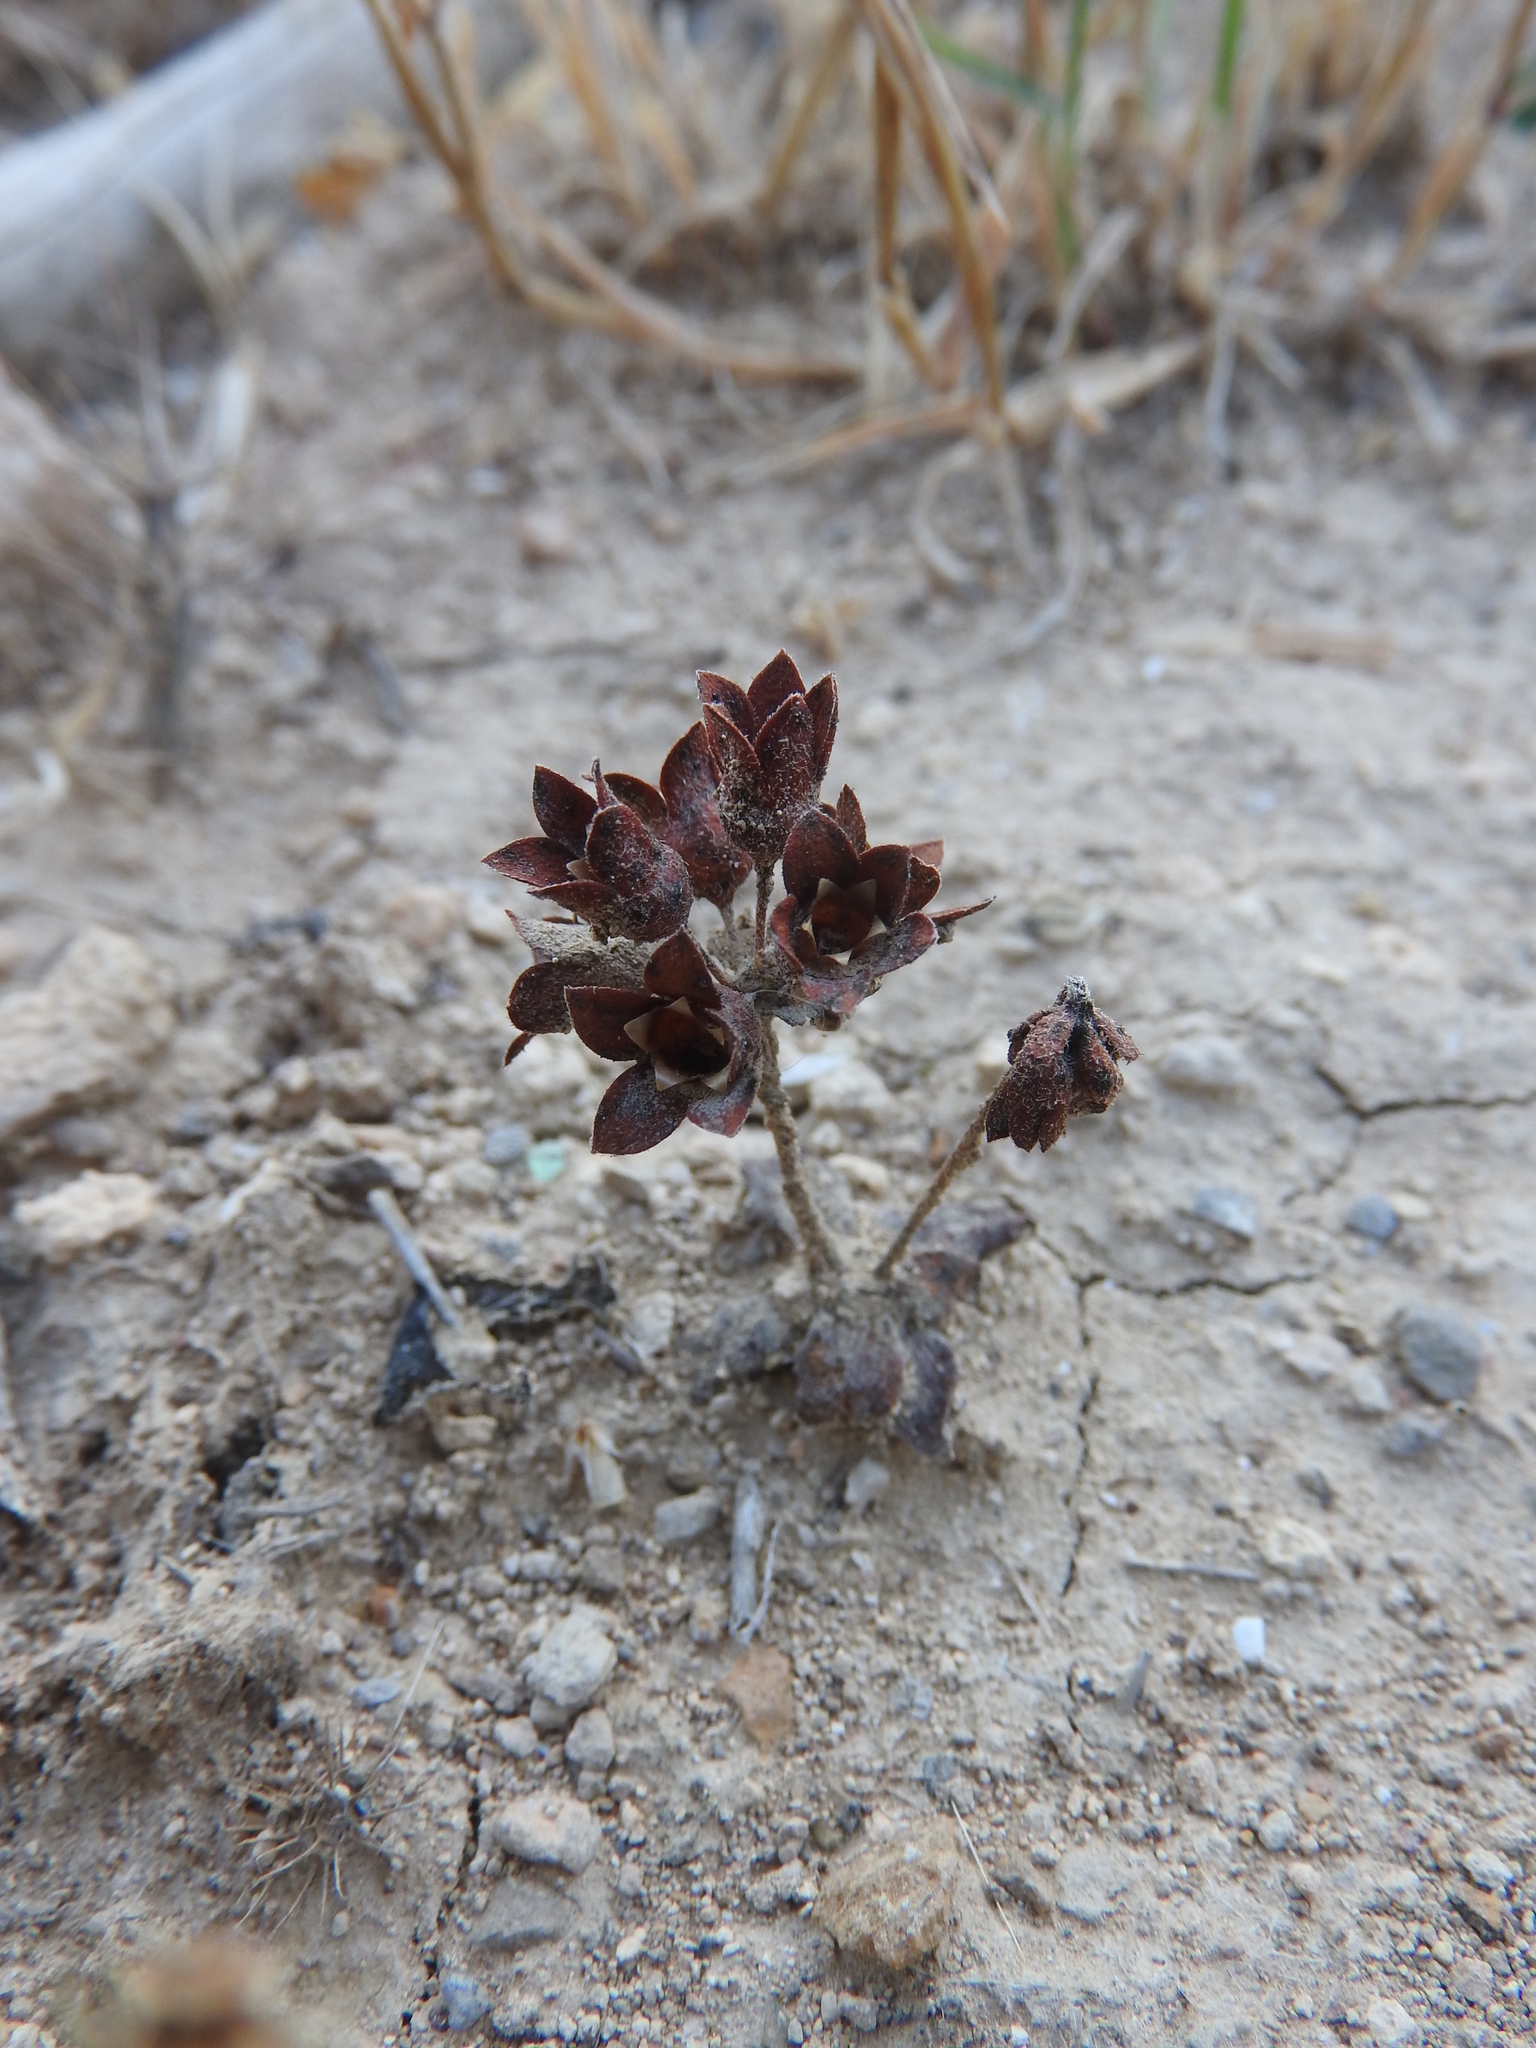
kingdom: Plantae
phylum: Tracheophyta
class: Magnoliopsida
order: Ericales
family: Primulaceae
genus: Androsace
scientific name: Androsace maxima
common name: Annual androsace
